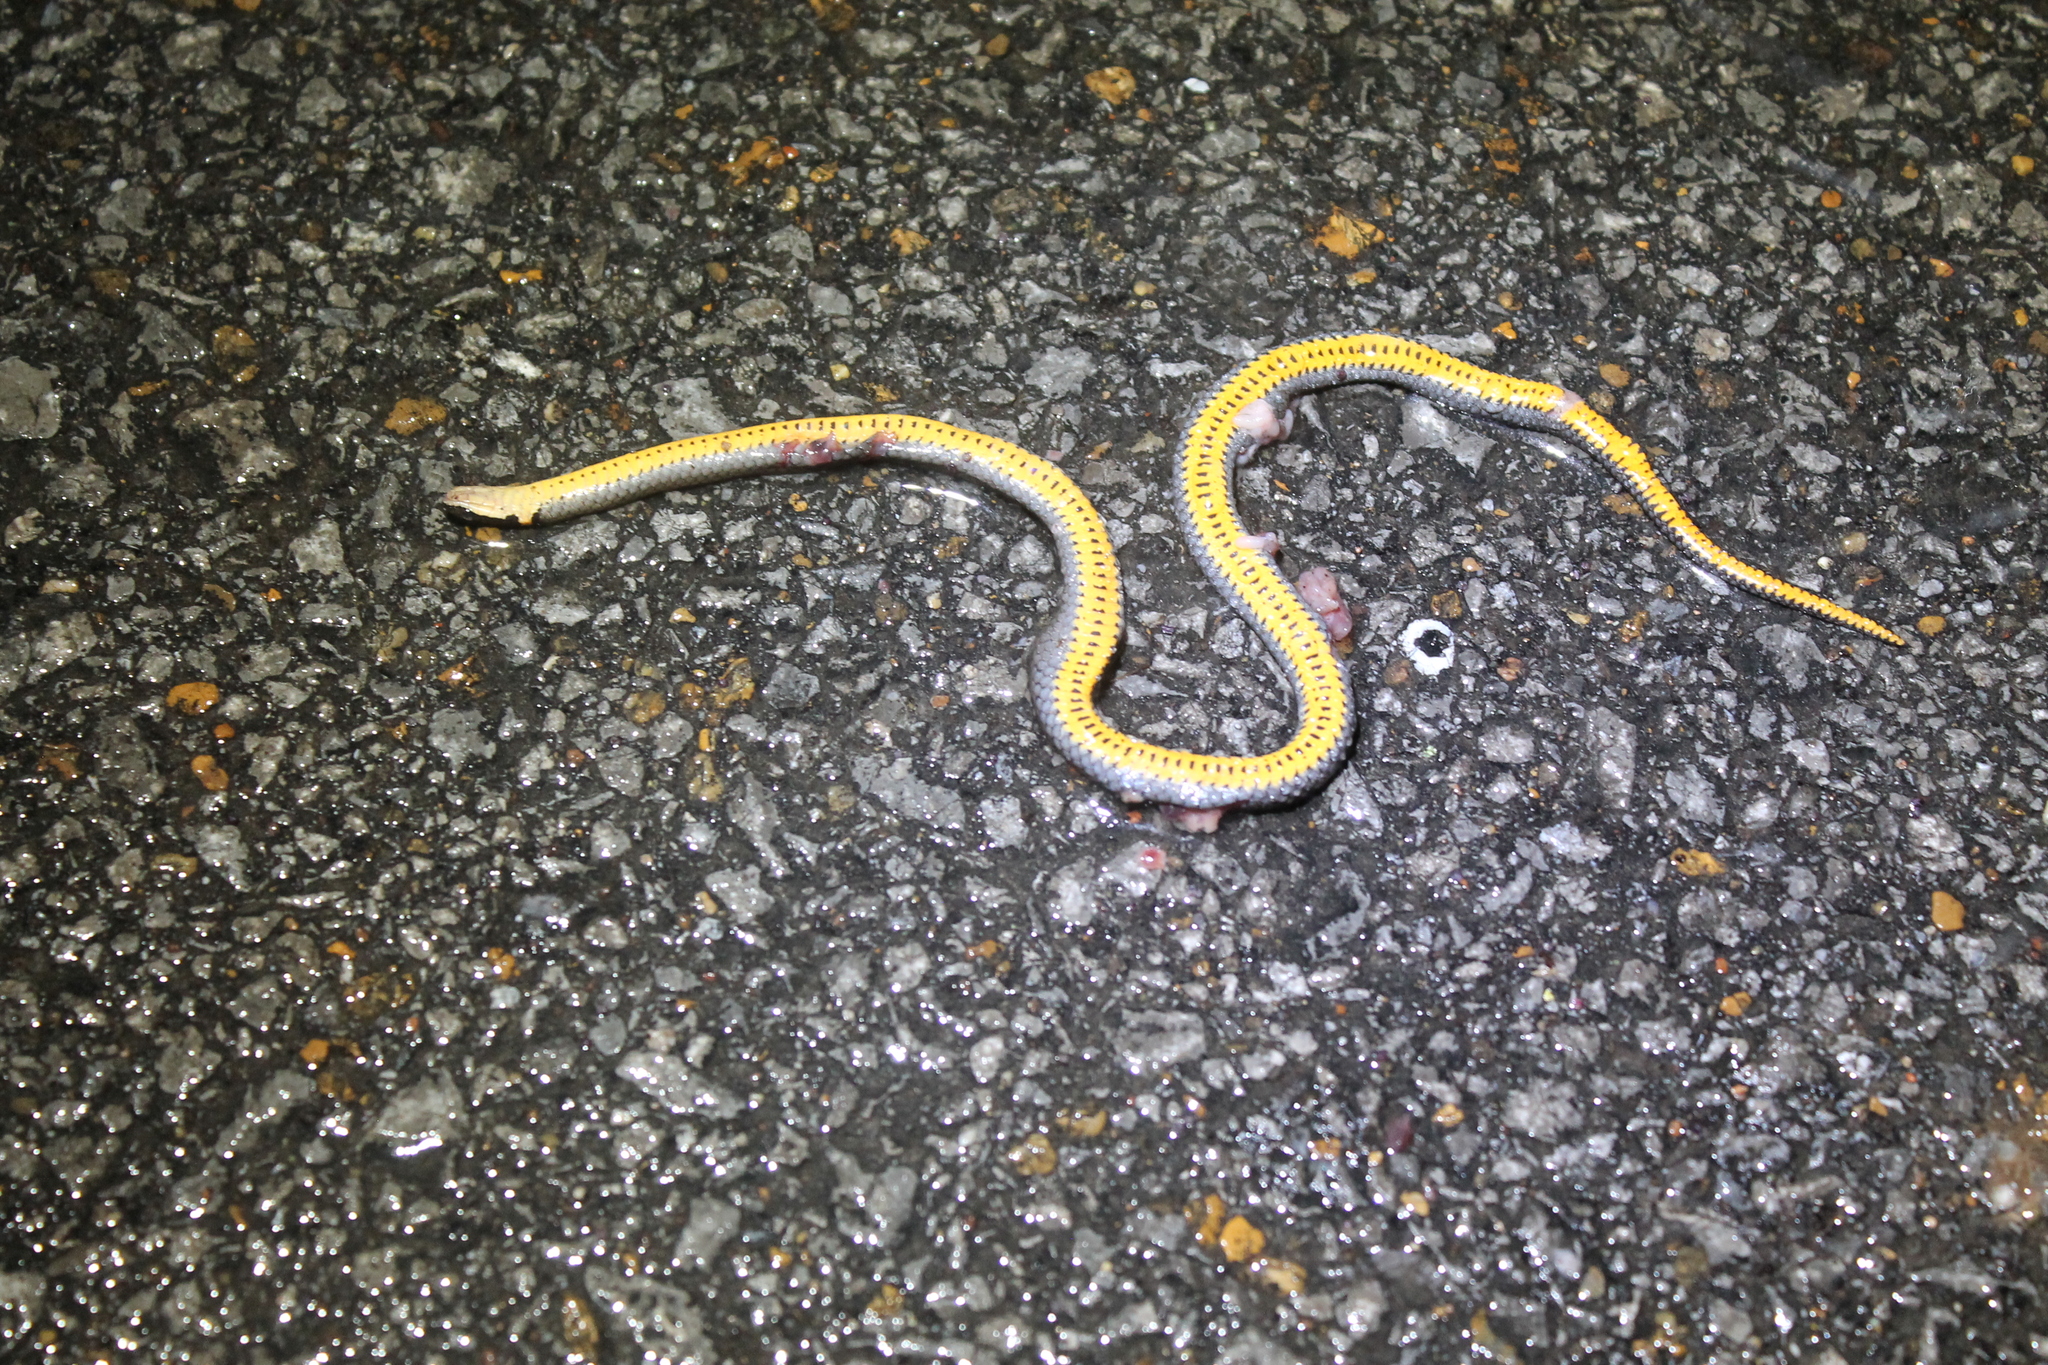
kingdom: Animalia
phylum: Chordata
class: Squamata
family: Colubridae
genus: Diadophis
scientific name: Diadophis punctatus
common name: Ringneck snake
